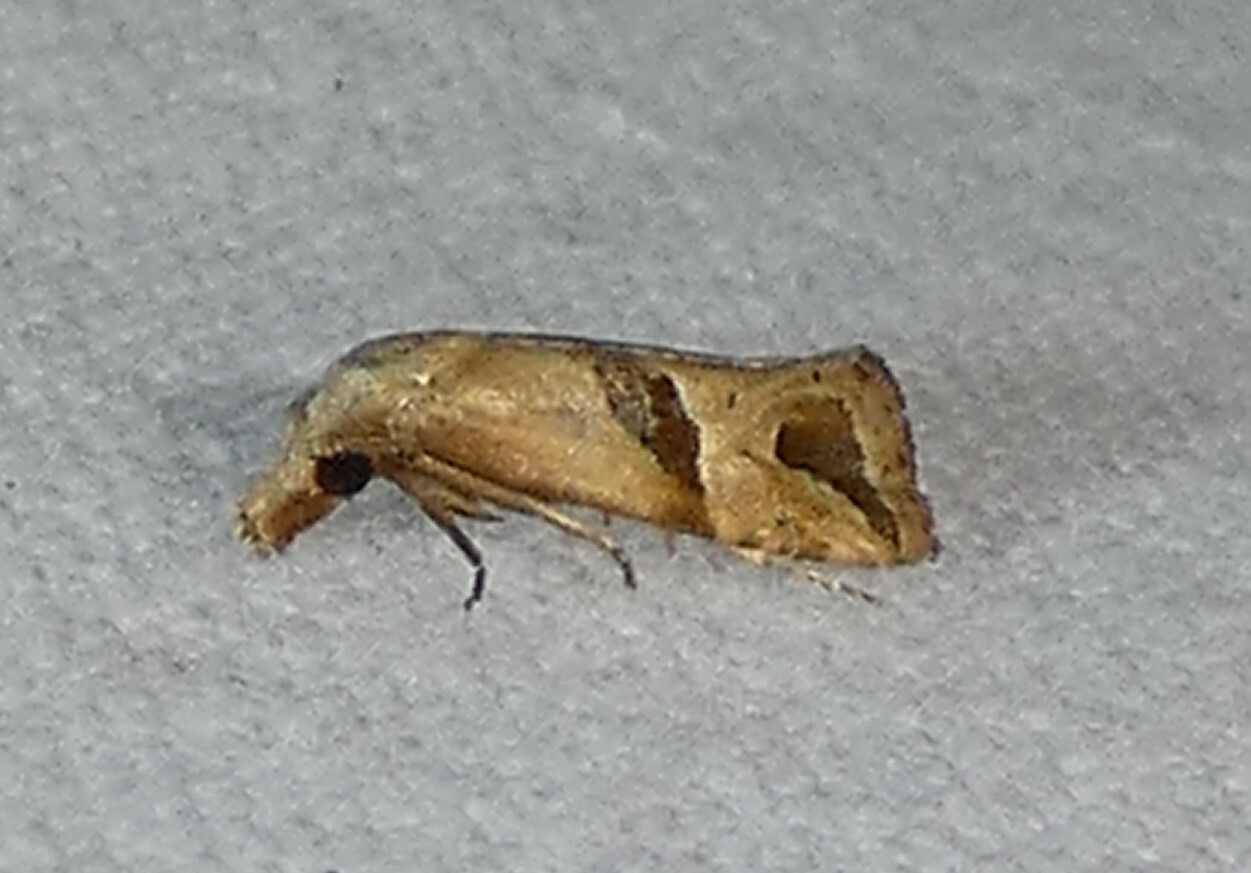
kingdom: Animalia
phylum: Arthropoda
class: Insecta
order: Lepidoptera
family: Tortricidae
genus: Eugnosta
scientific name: Eugnosta sartana
